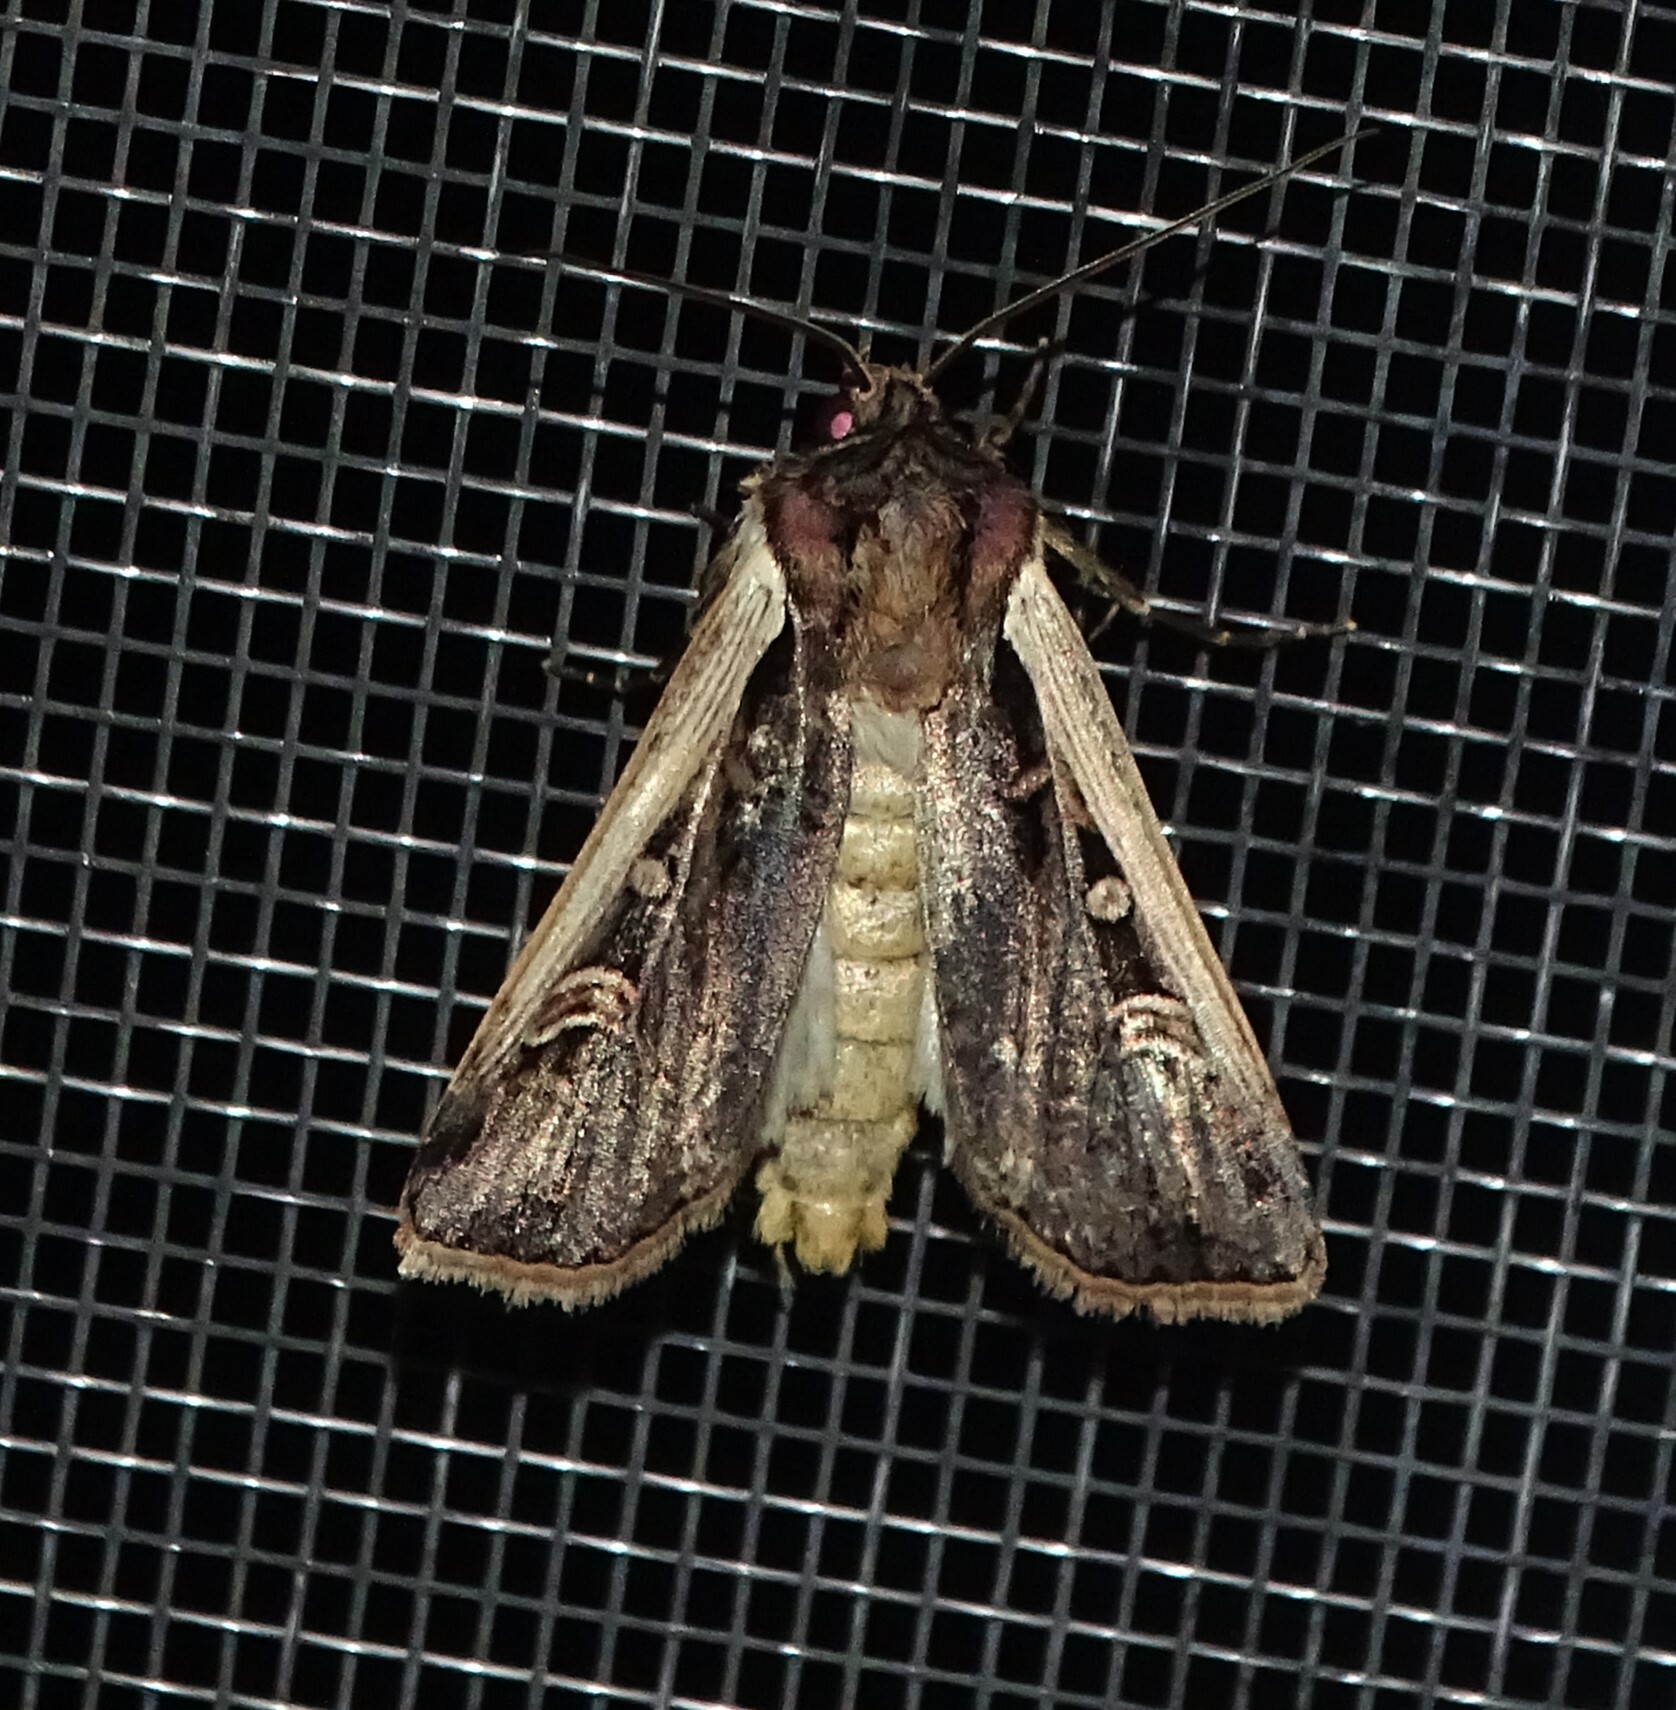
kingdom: Animalia
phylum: Arthropoda
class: Insecta
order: Lepidoptera
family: Noctuidae
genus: Striacosta
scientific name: Striacosta albicosta
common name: Western bean cutworm moth
